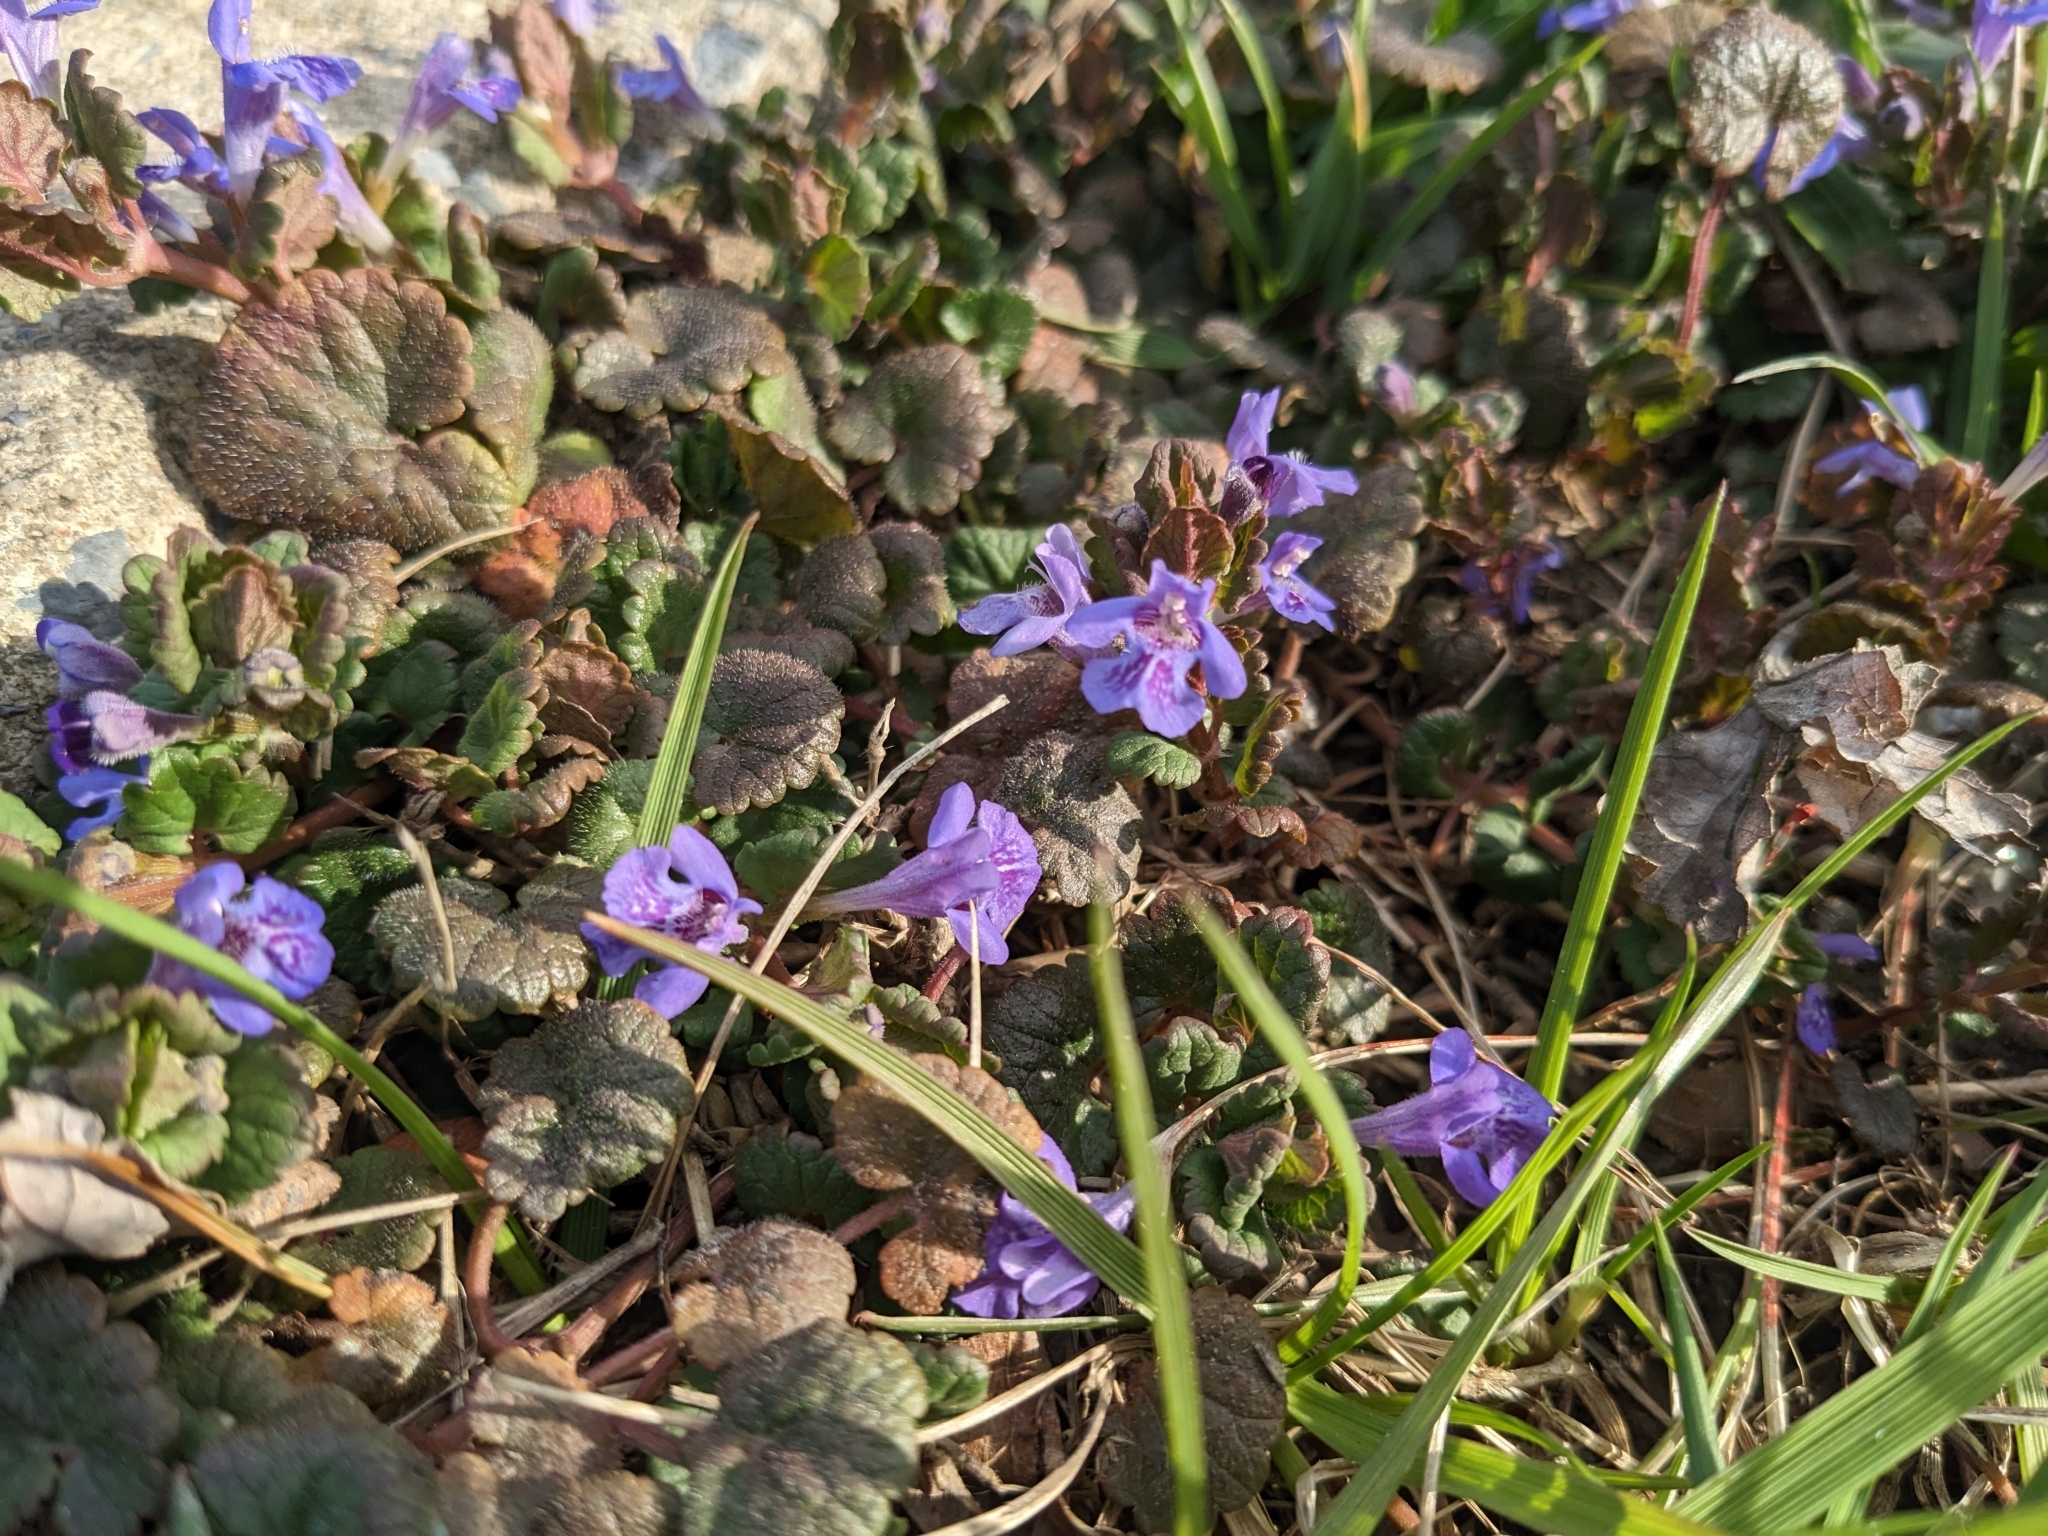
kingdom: Plantae
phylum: Tracheophyta
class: Magnoliopsida
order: Lamiales
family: Lamiaceae
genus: Glechoma
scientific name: Glechoma hederacea
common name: Ground ivy
